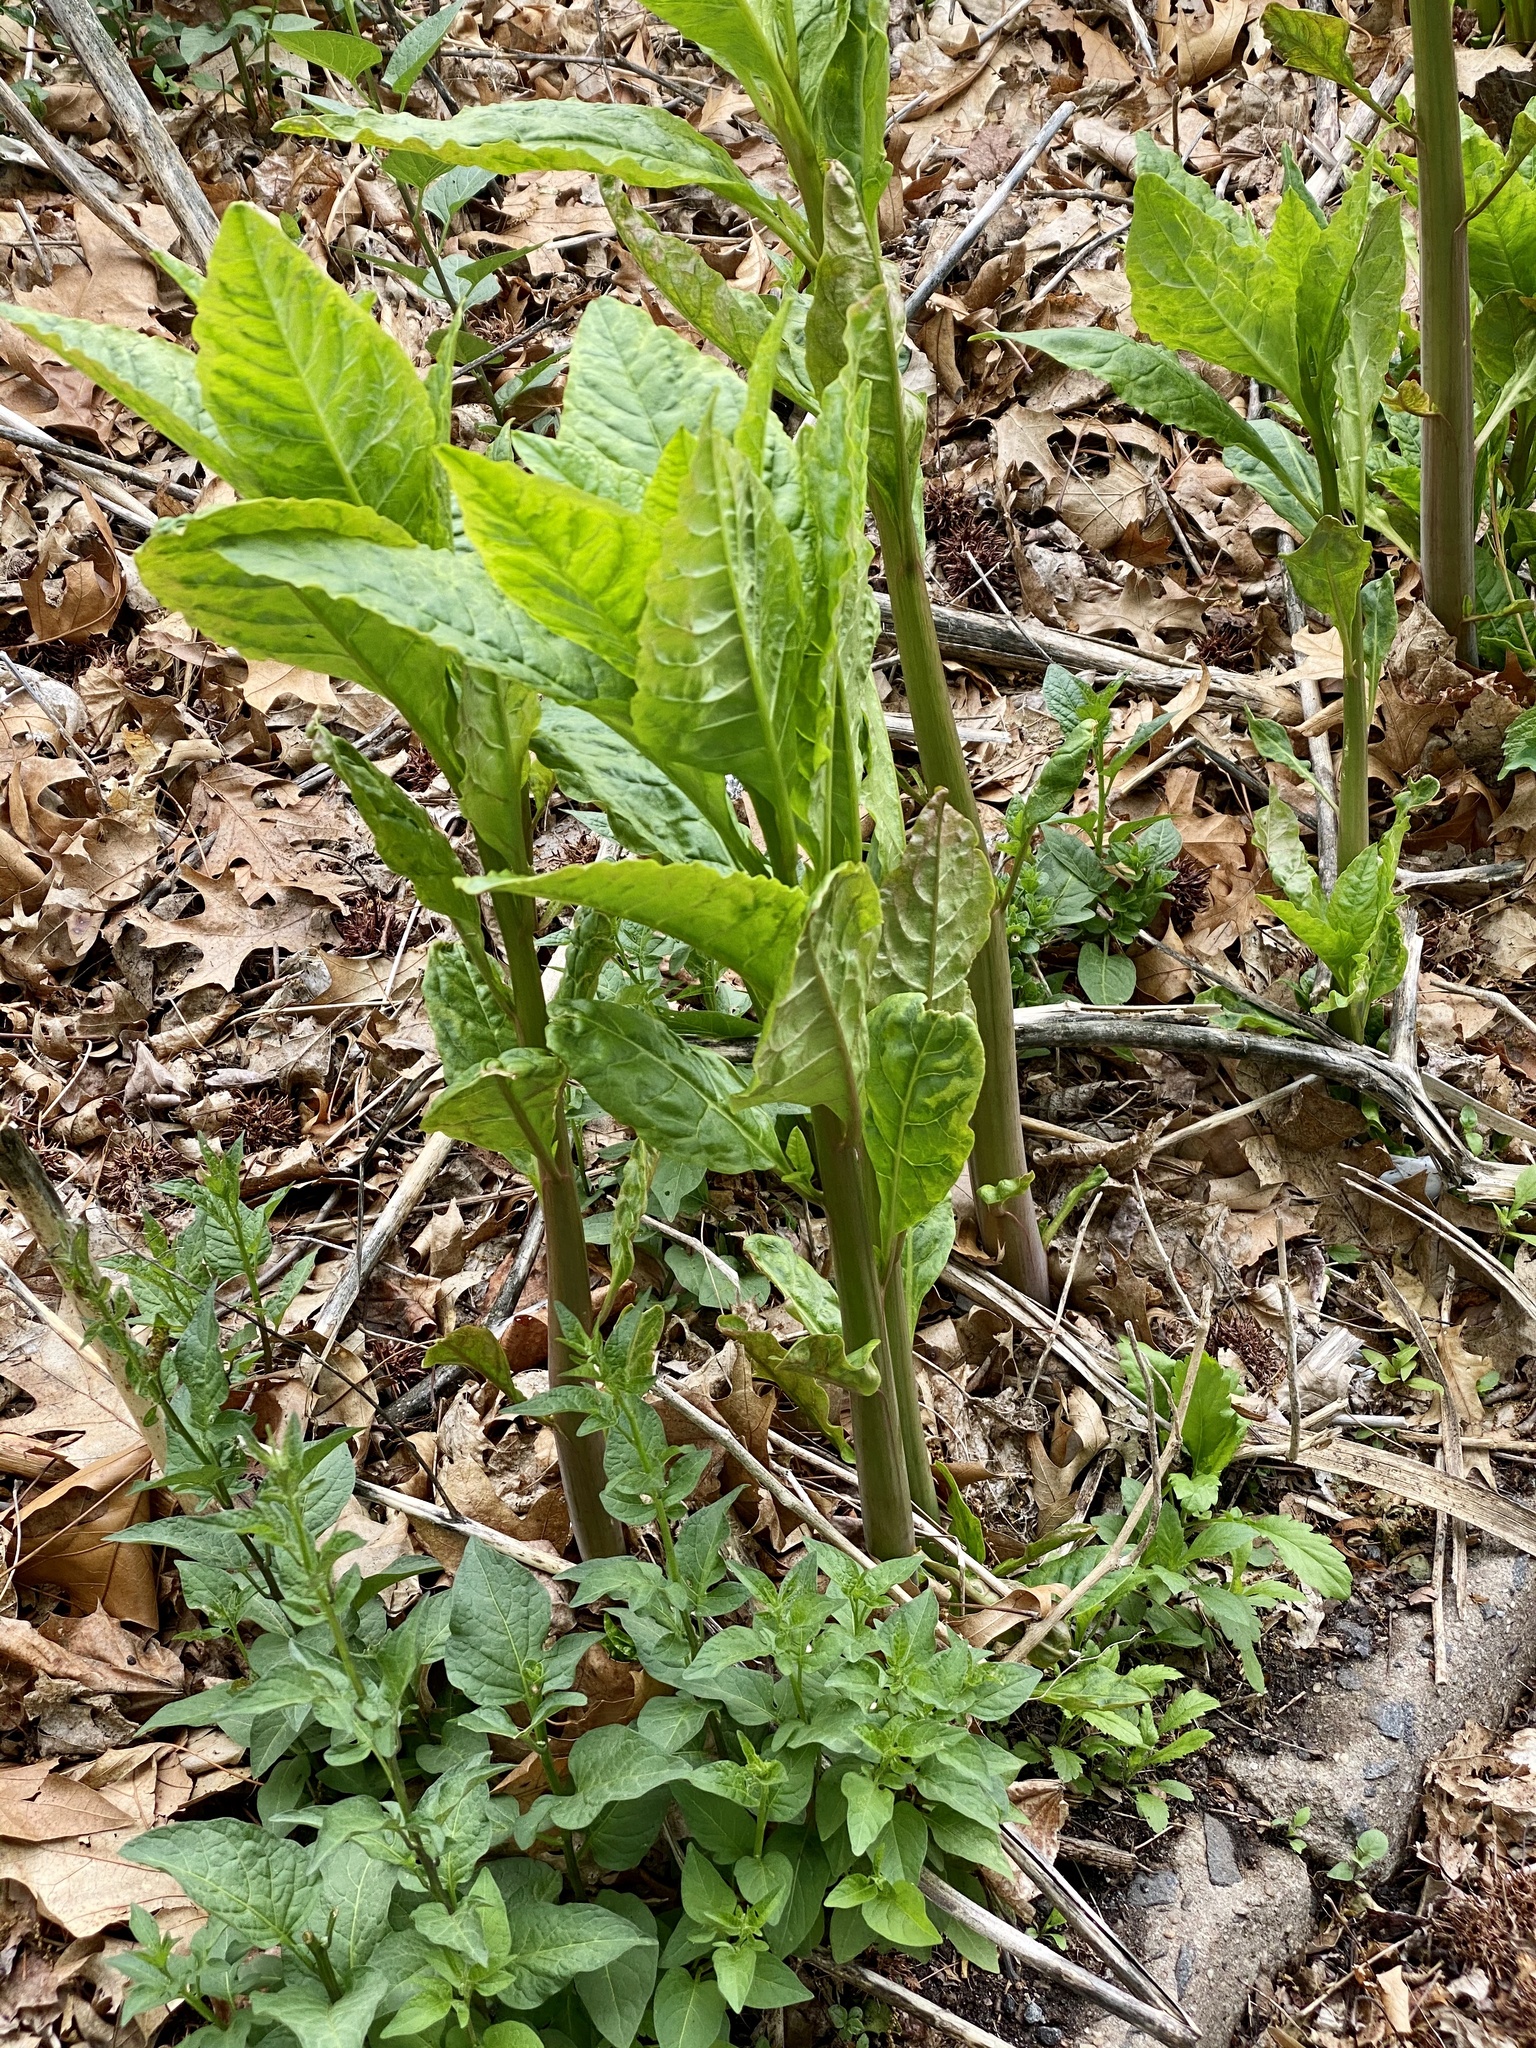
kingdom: Plantae
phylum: Tracheophyta
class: Magnoliopsida
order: Caryophyllales
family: Phytolaccaceae
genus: Phytolacca
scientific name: Phytolacca americana
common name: American pokeweed
